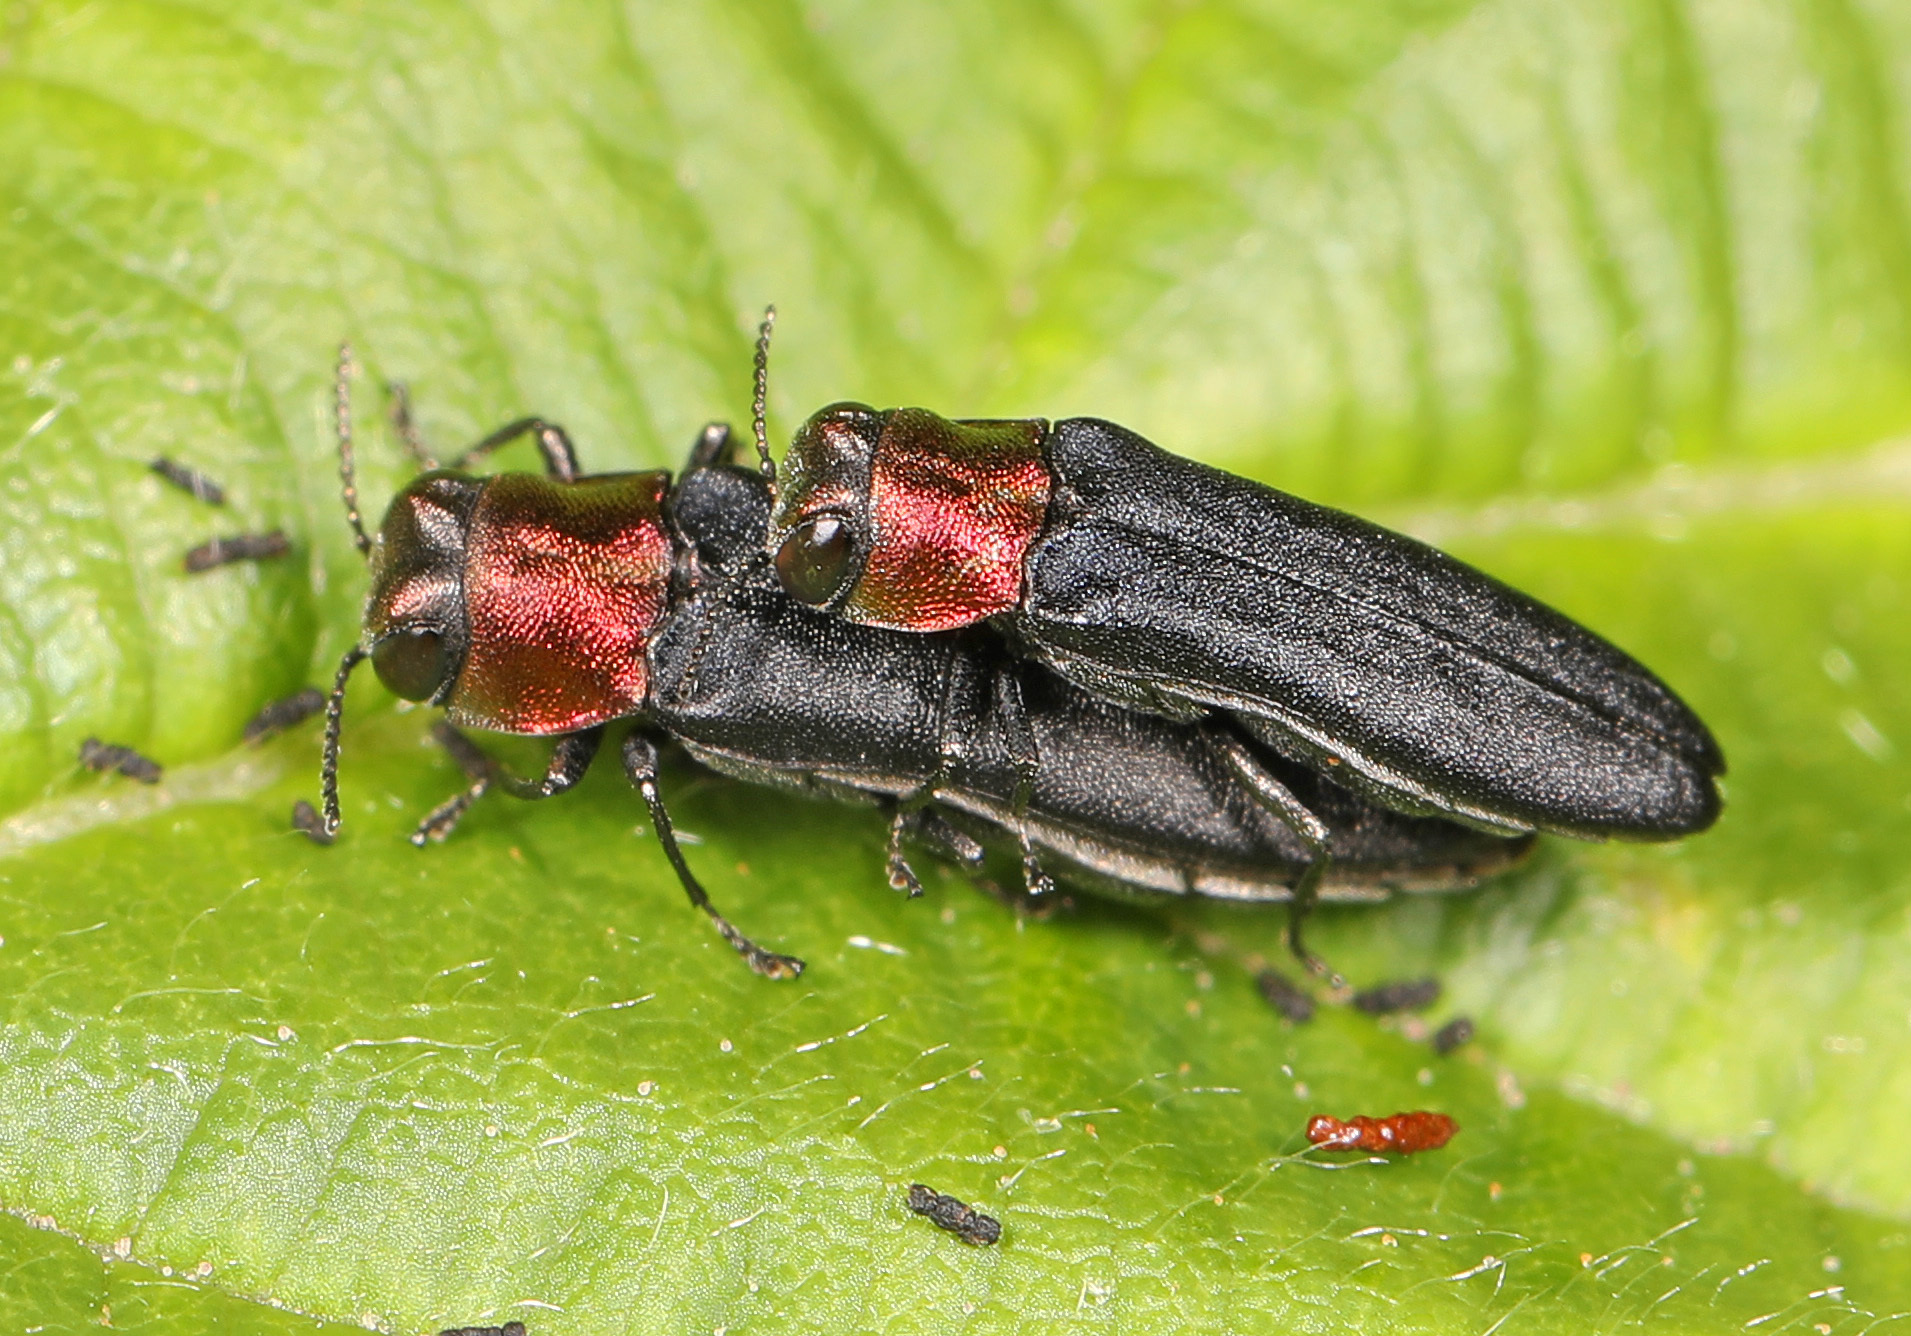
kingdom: Animalia
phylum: Arthropoda
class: Insecta
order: Coleoptera
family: Buprestidae
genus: Agrilus
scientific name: Agrilus ruficollis
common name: Red-necked cane borer beetle
